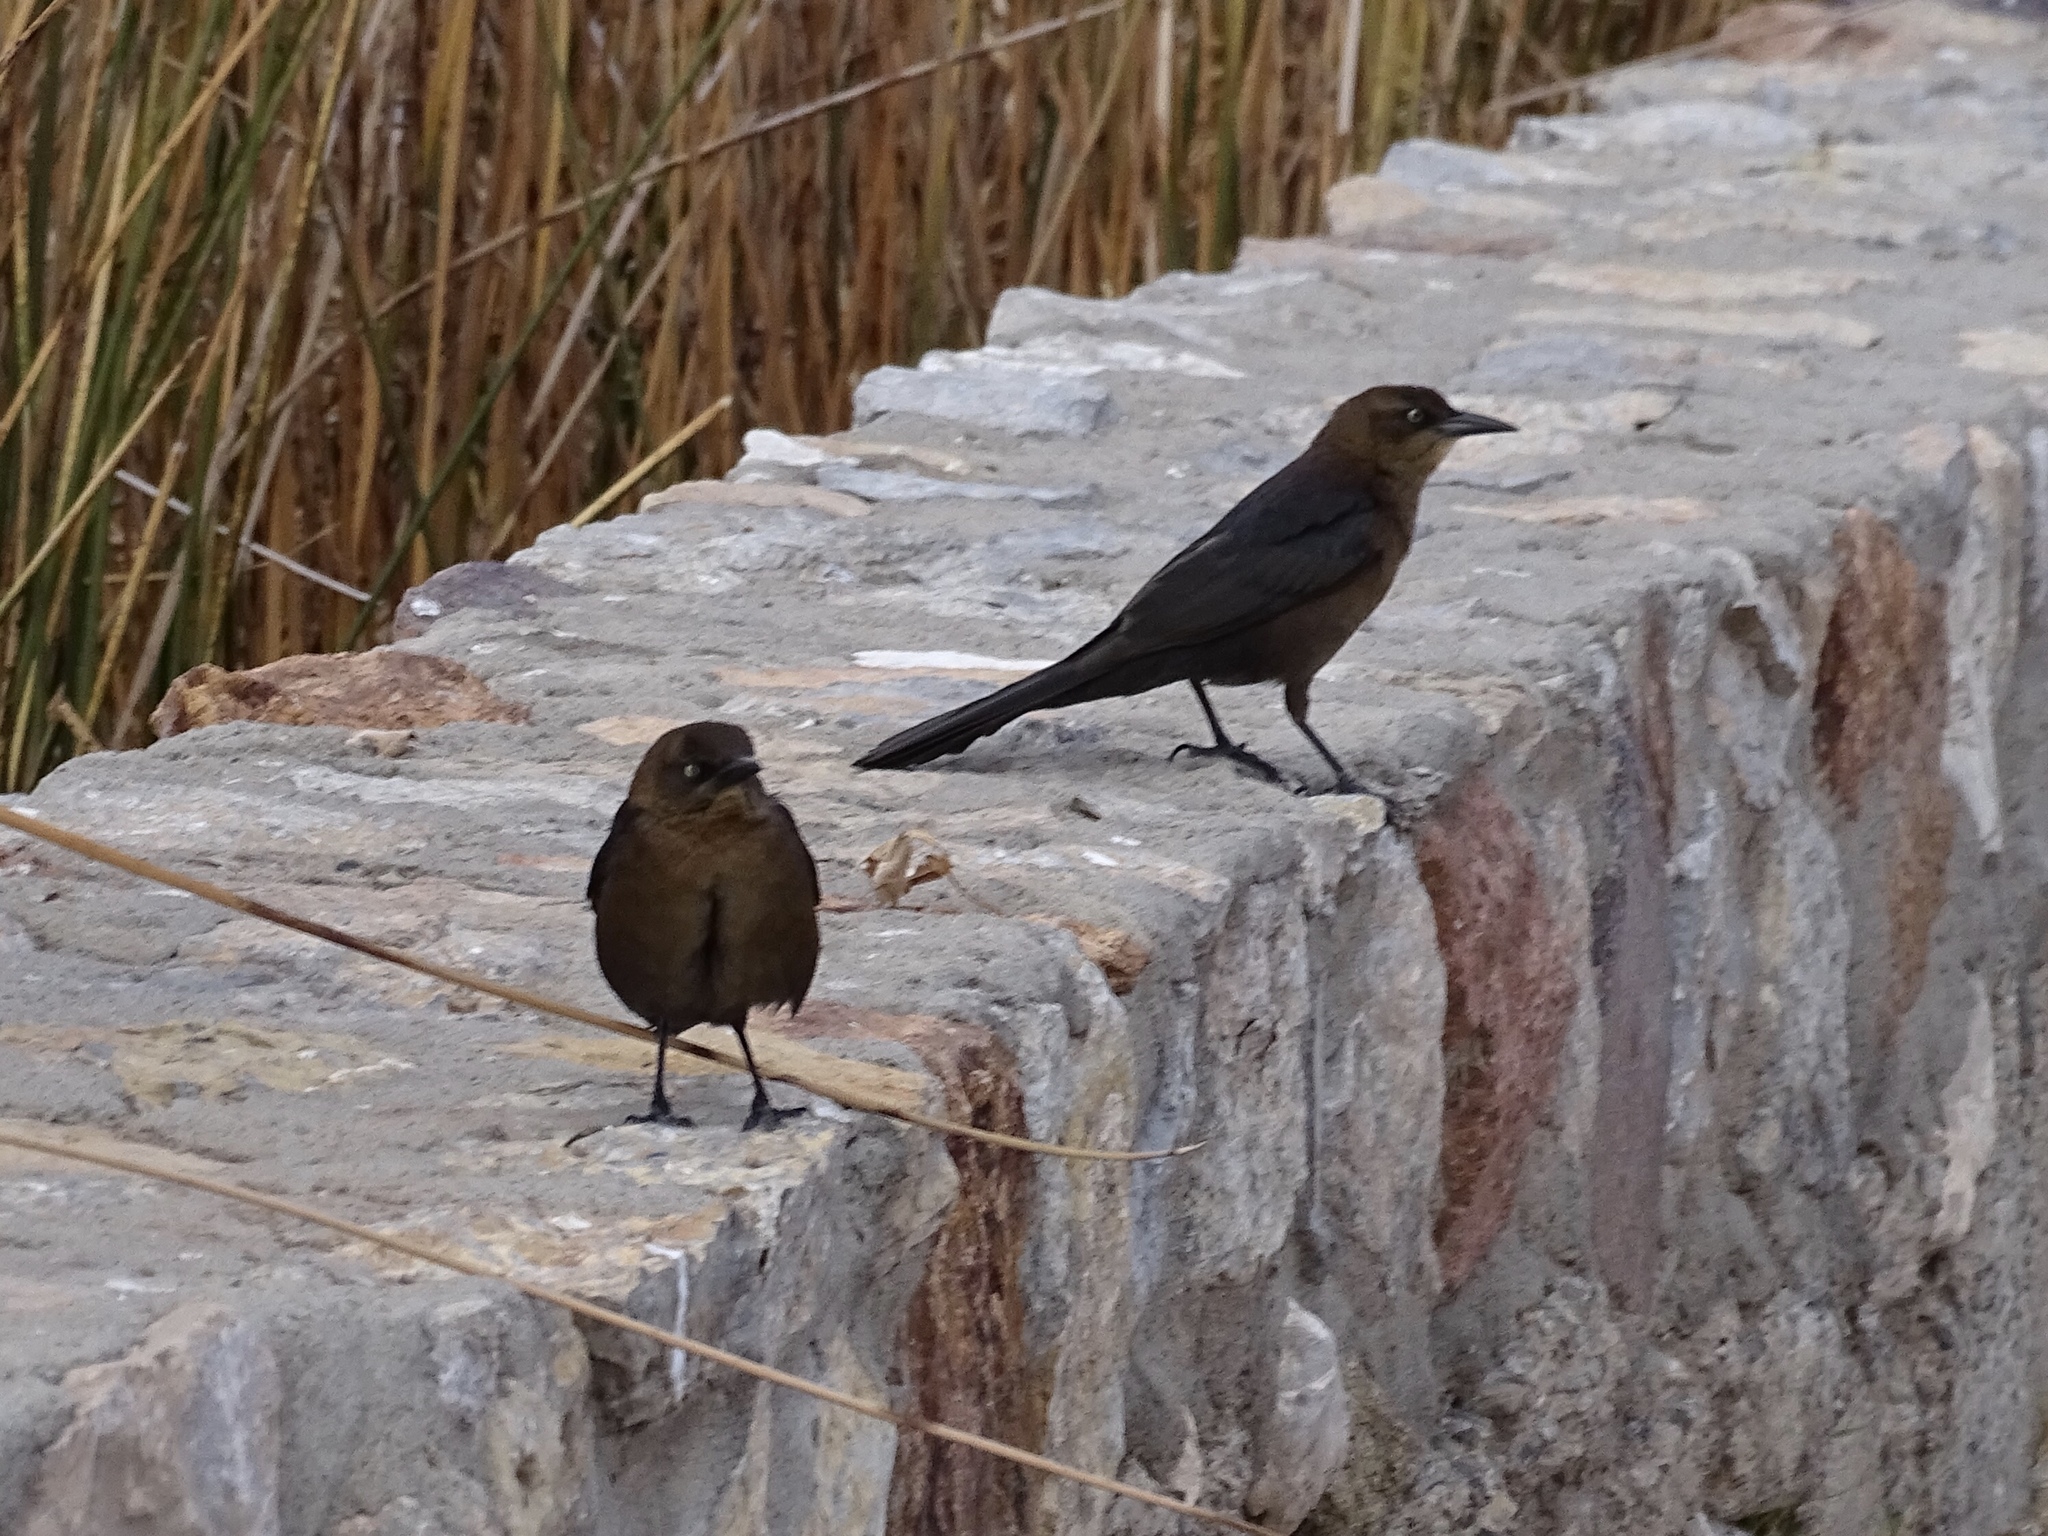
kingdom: Animalia
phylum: Chordata
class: Aves
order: Passeriformes
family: Icteridae
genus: Quiscalus
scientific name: Quiscalus mexicanus
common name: Great-tailed grackle
